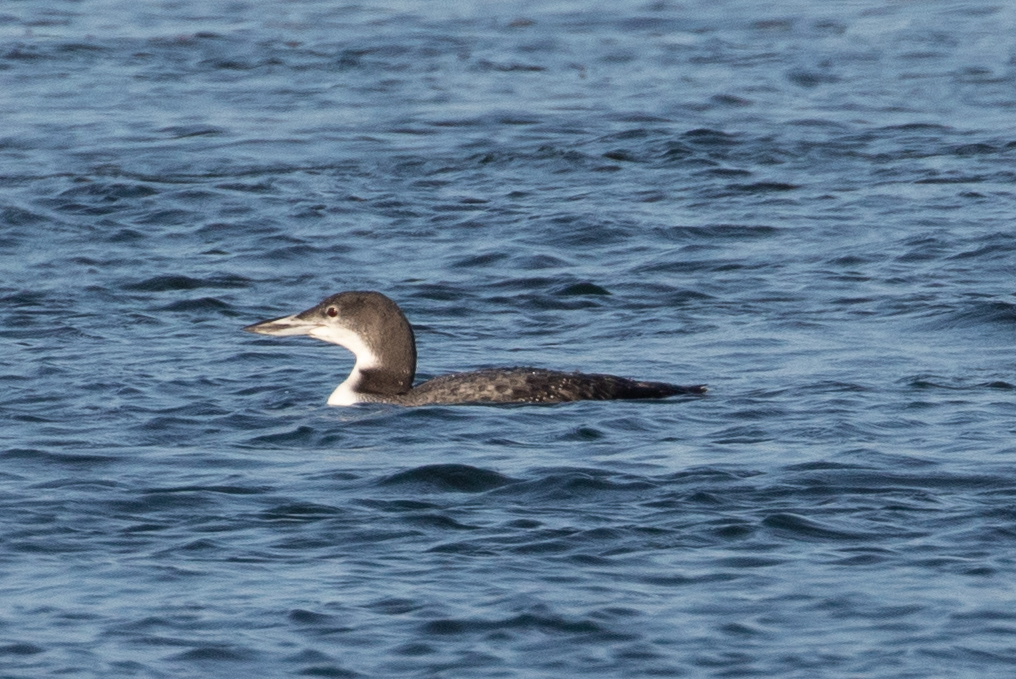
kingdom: Animalia
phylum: Chordata
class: Aves
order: Gaviiformes
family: Gaviidae
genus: Gavia
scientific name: Gavia immer
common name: Common loon
